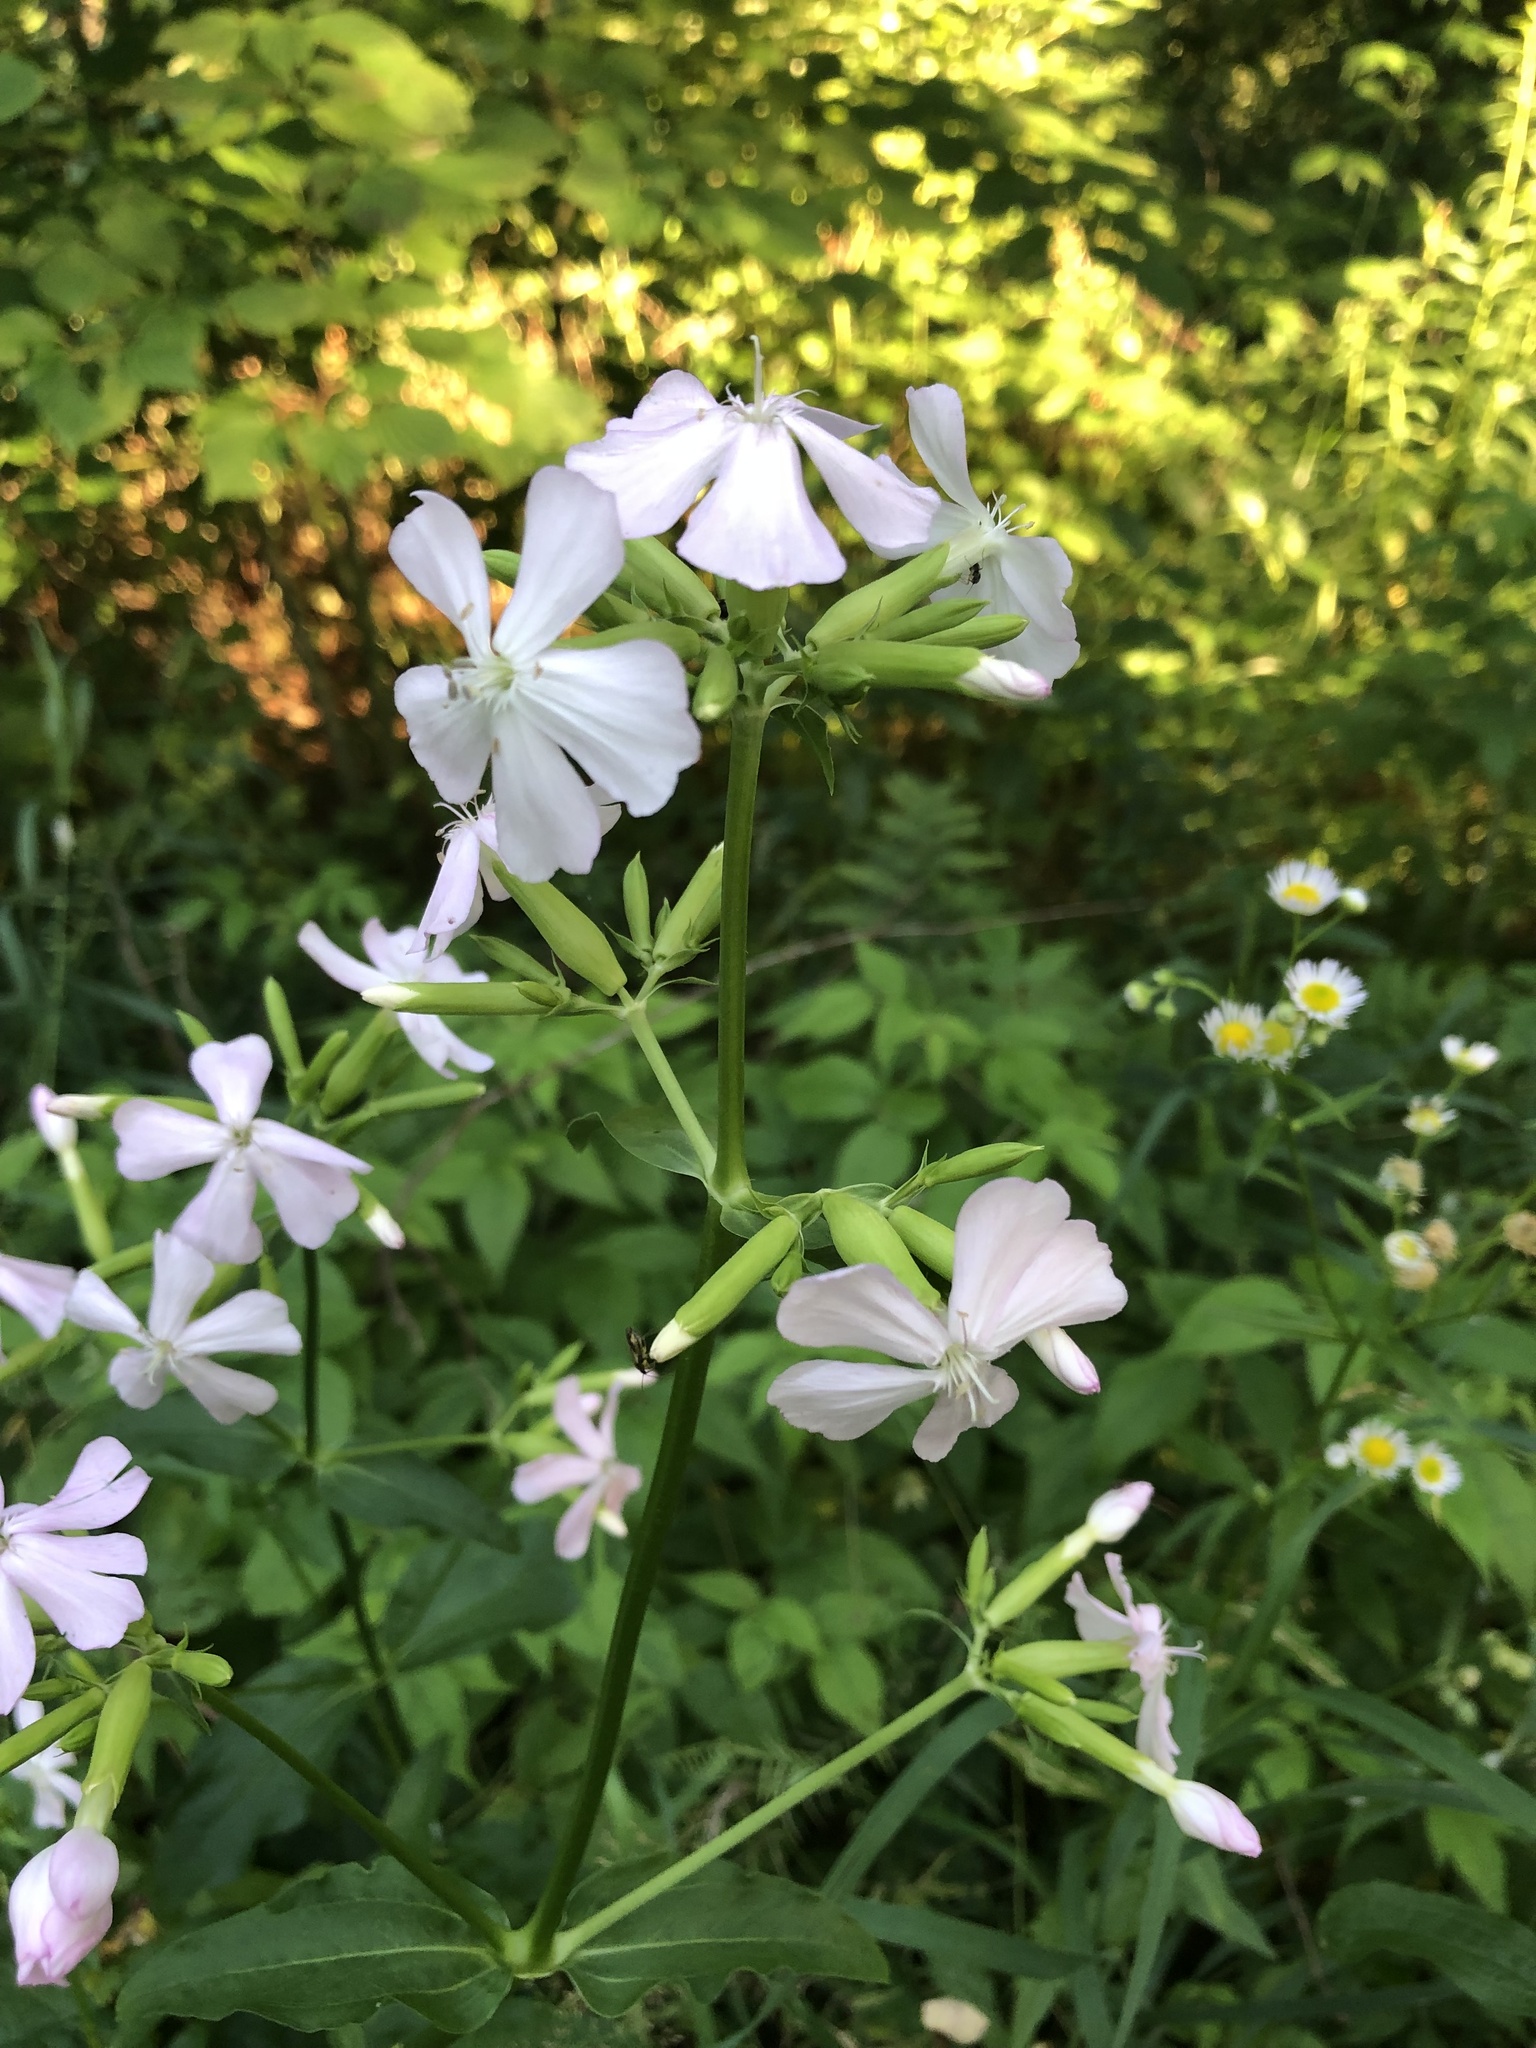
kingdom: Plantae
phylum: Tracheophyta
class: Magnoliopsida
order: Caryophyllales
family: Caryophyllaceae
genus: Saponaria
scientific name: Saponaria officinalis
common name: Soapwort
